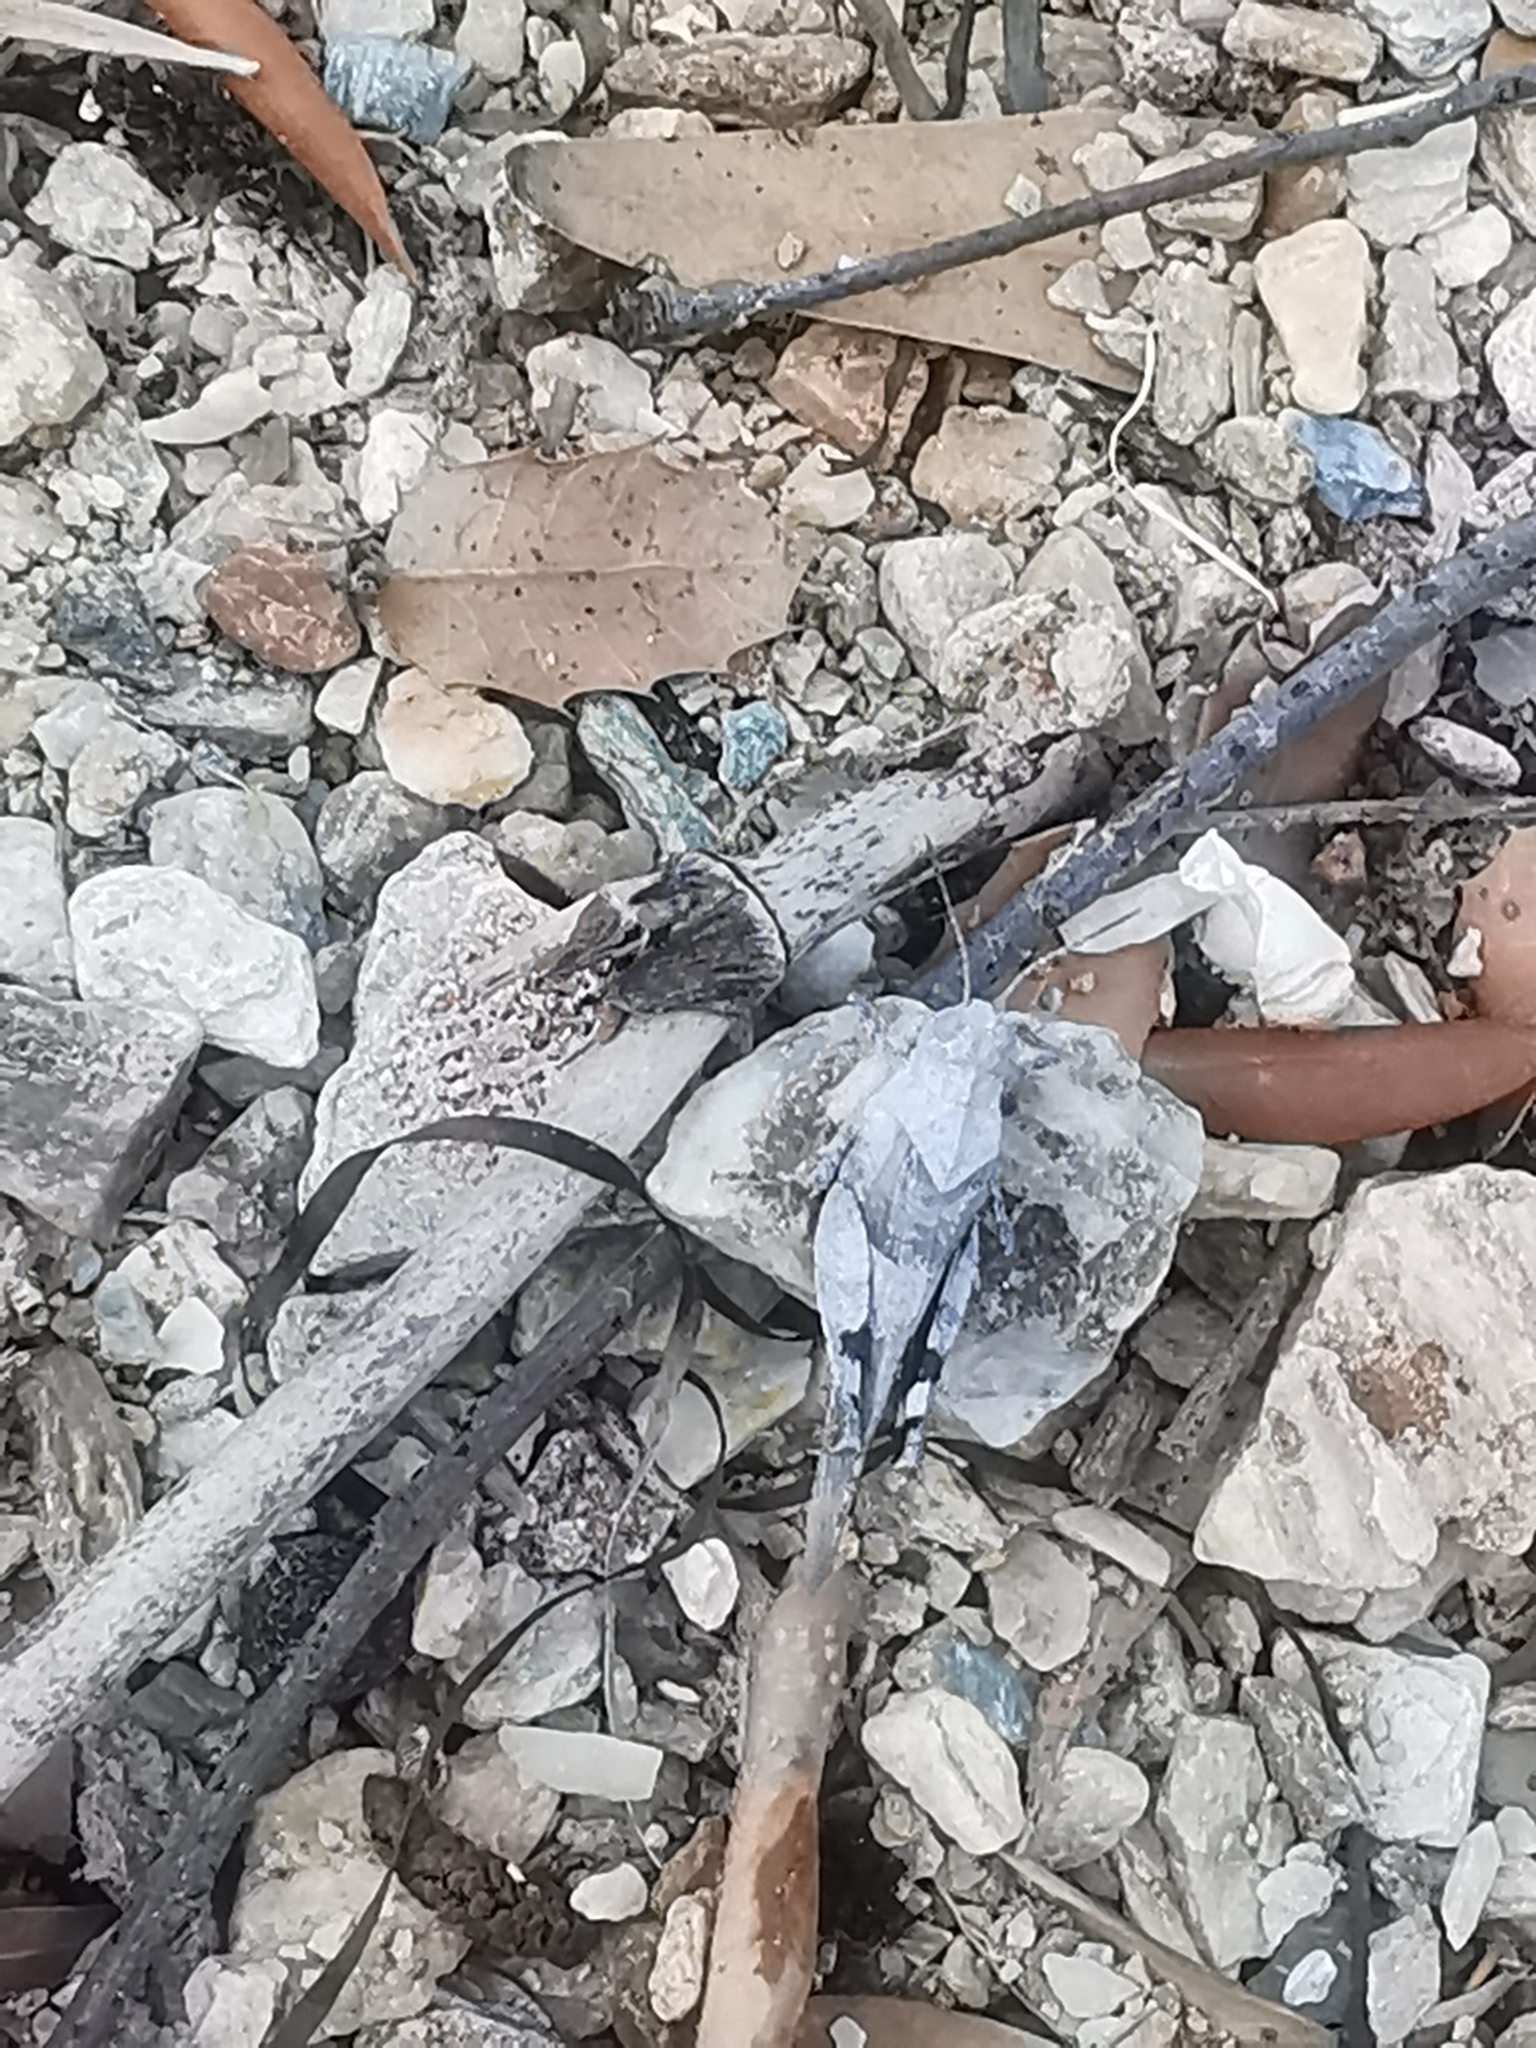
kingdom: Animalia
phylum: Arthropoda
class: Insecta
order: Orthoptera
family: Acrididae
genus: Oedipoda
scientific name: Oedipoda
